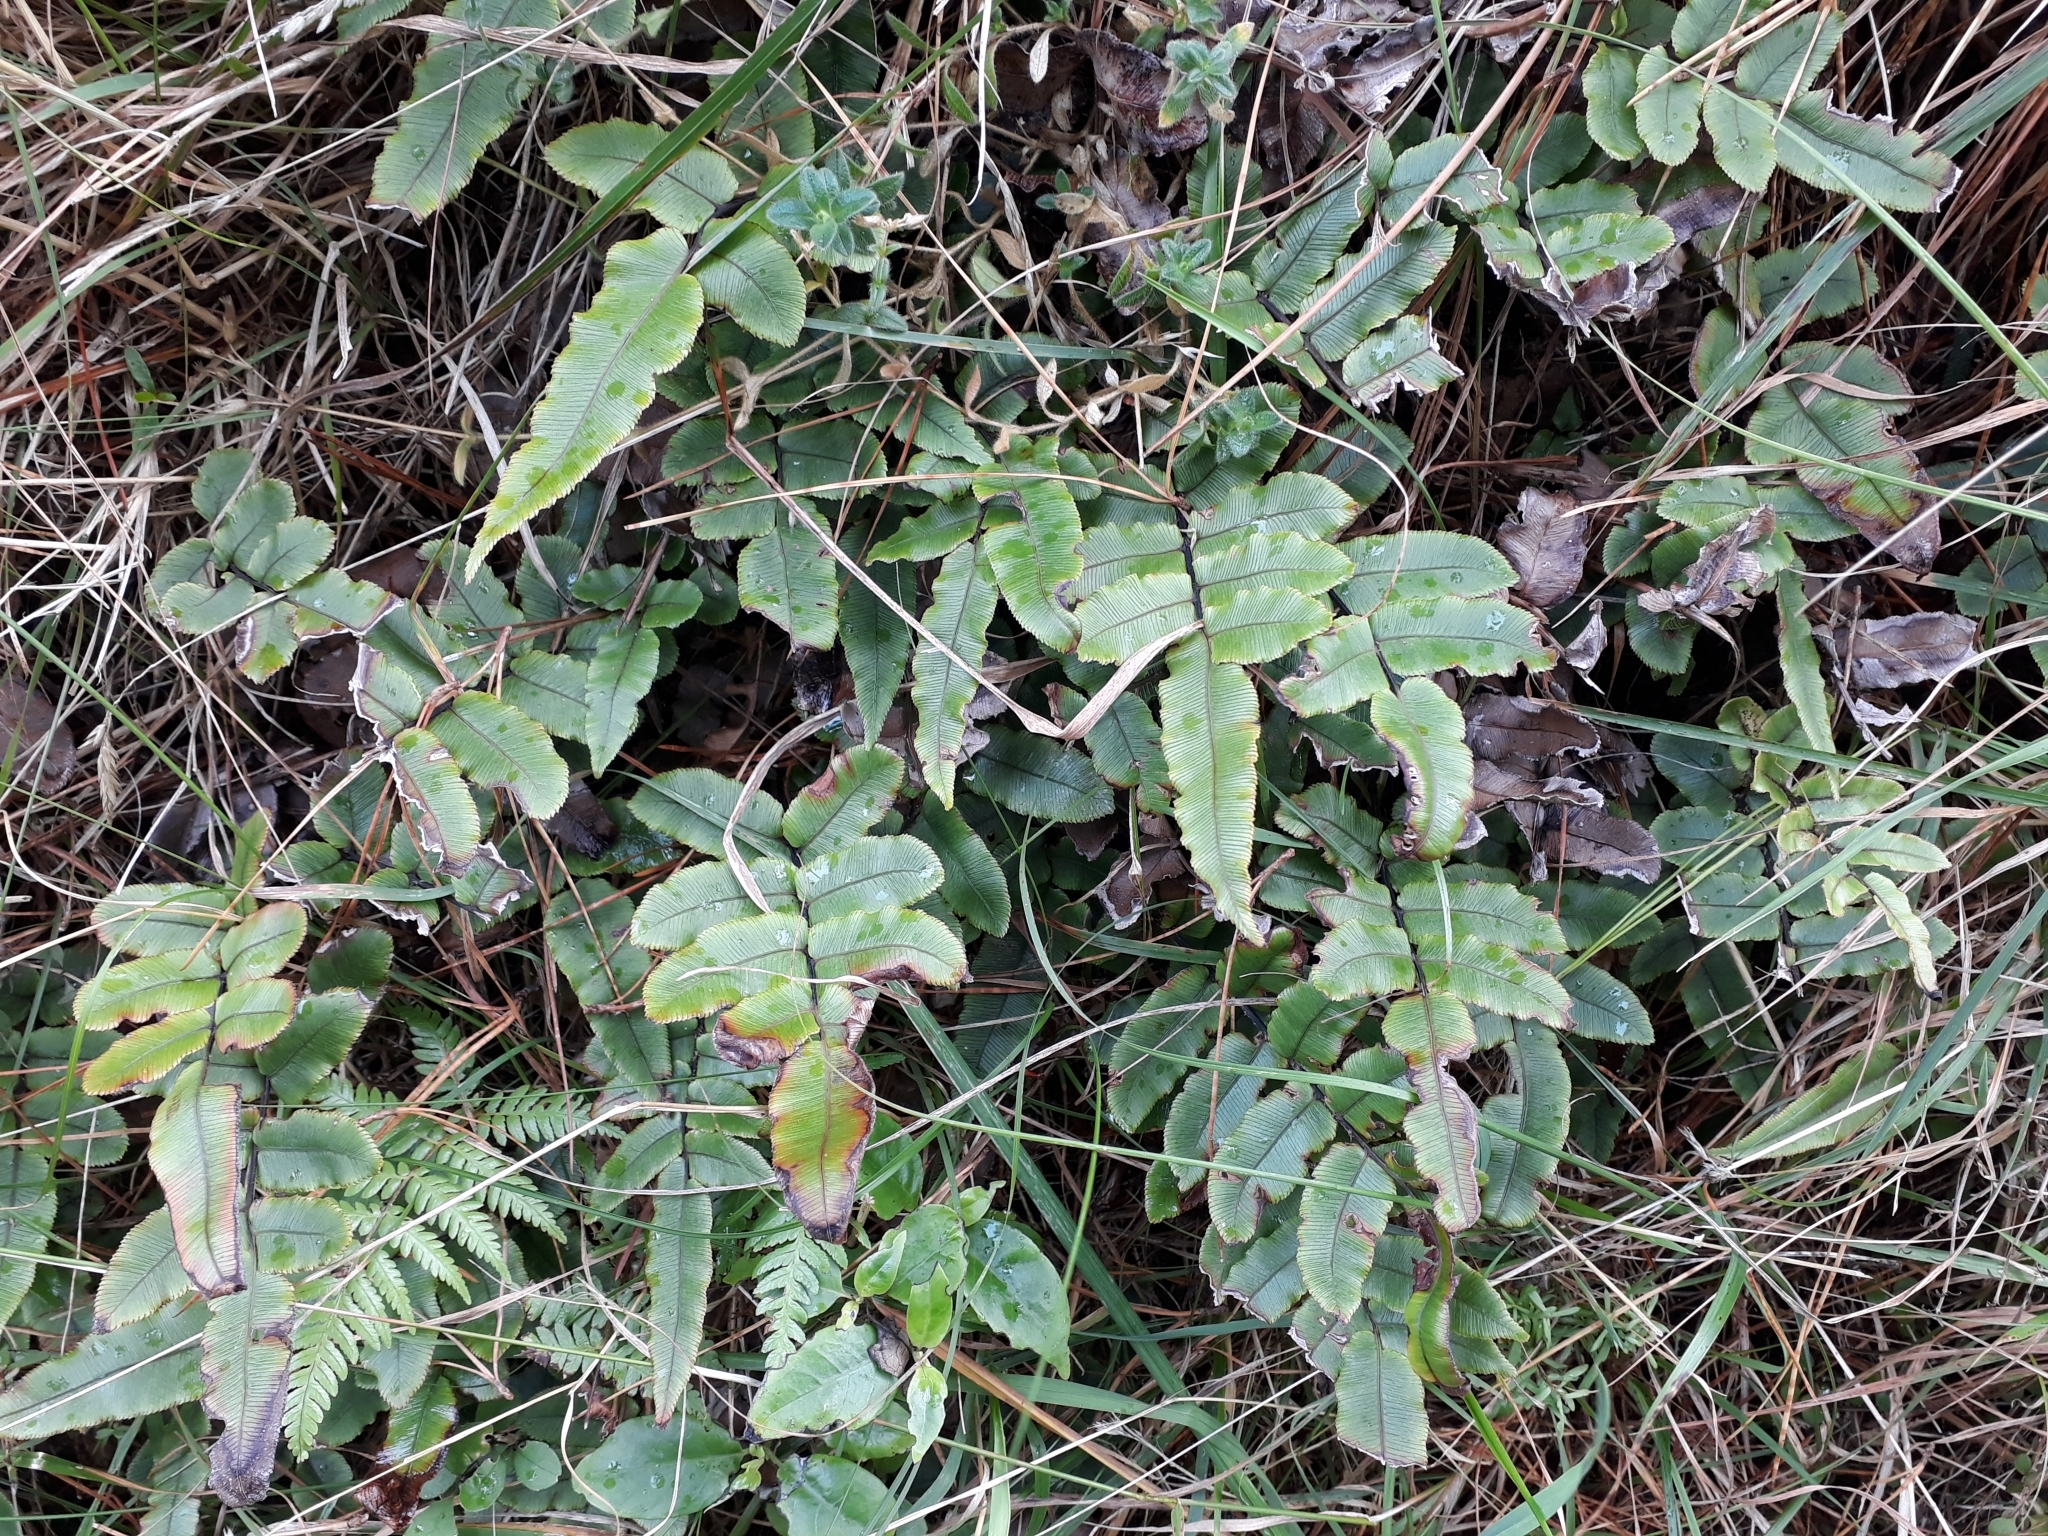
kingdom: Plantae
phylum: Tracheophyta
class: Polypodiopsida
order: Polypodiales
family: Blechnaceae
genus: Parablechnum
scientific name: Parablechnum procerum
